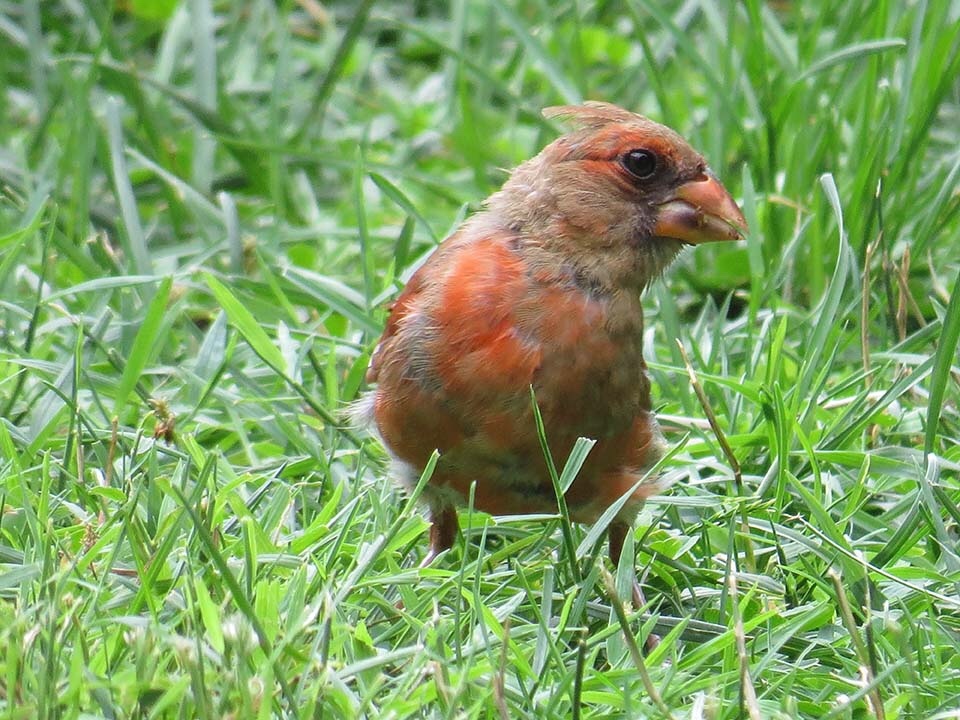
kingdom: Animalia
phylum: Chordata
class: Aves
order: Passeriformes
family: Cardinalidae
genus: Cardinalis
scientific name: Cardinalis cardinalis
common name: Northern cardinal
